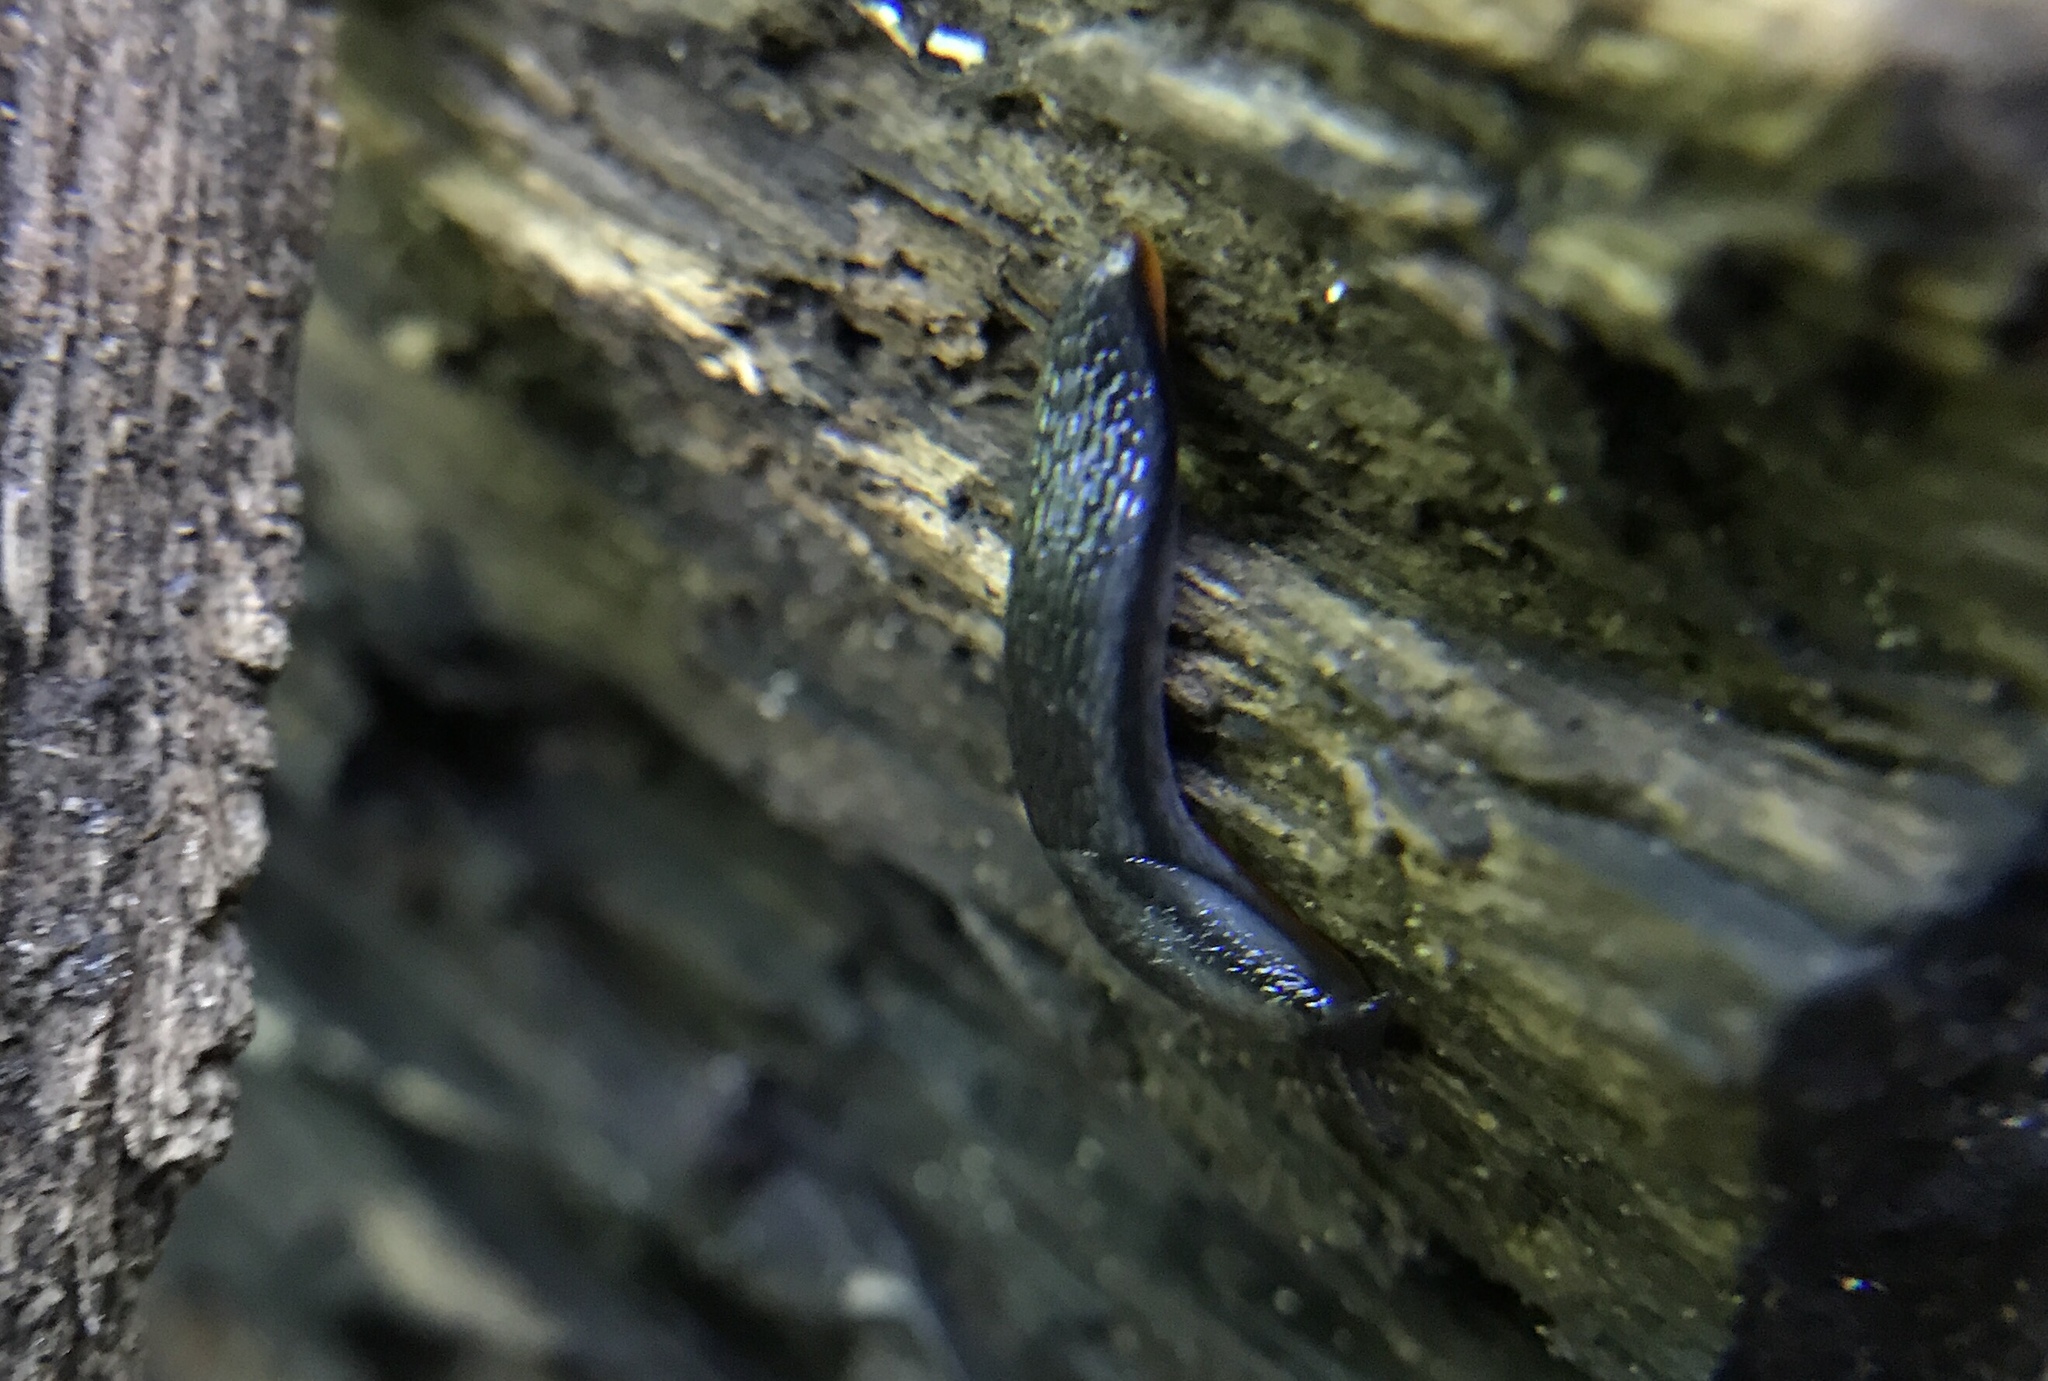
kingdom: Animalia
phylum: Mollusca
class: Gastropoda
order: Stylommatophora
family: Arionidae
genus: Arion
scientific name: Arion hortensis
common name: Garden arion
